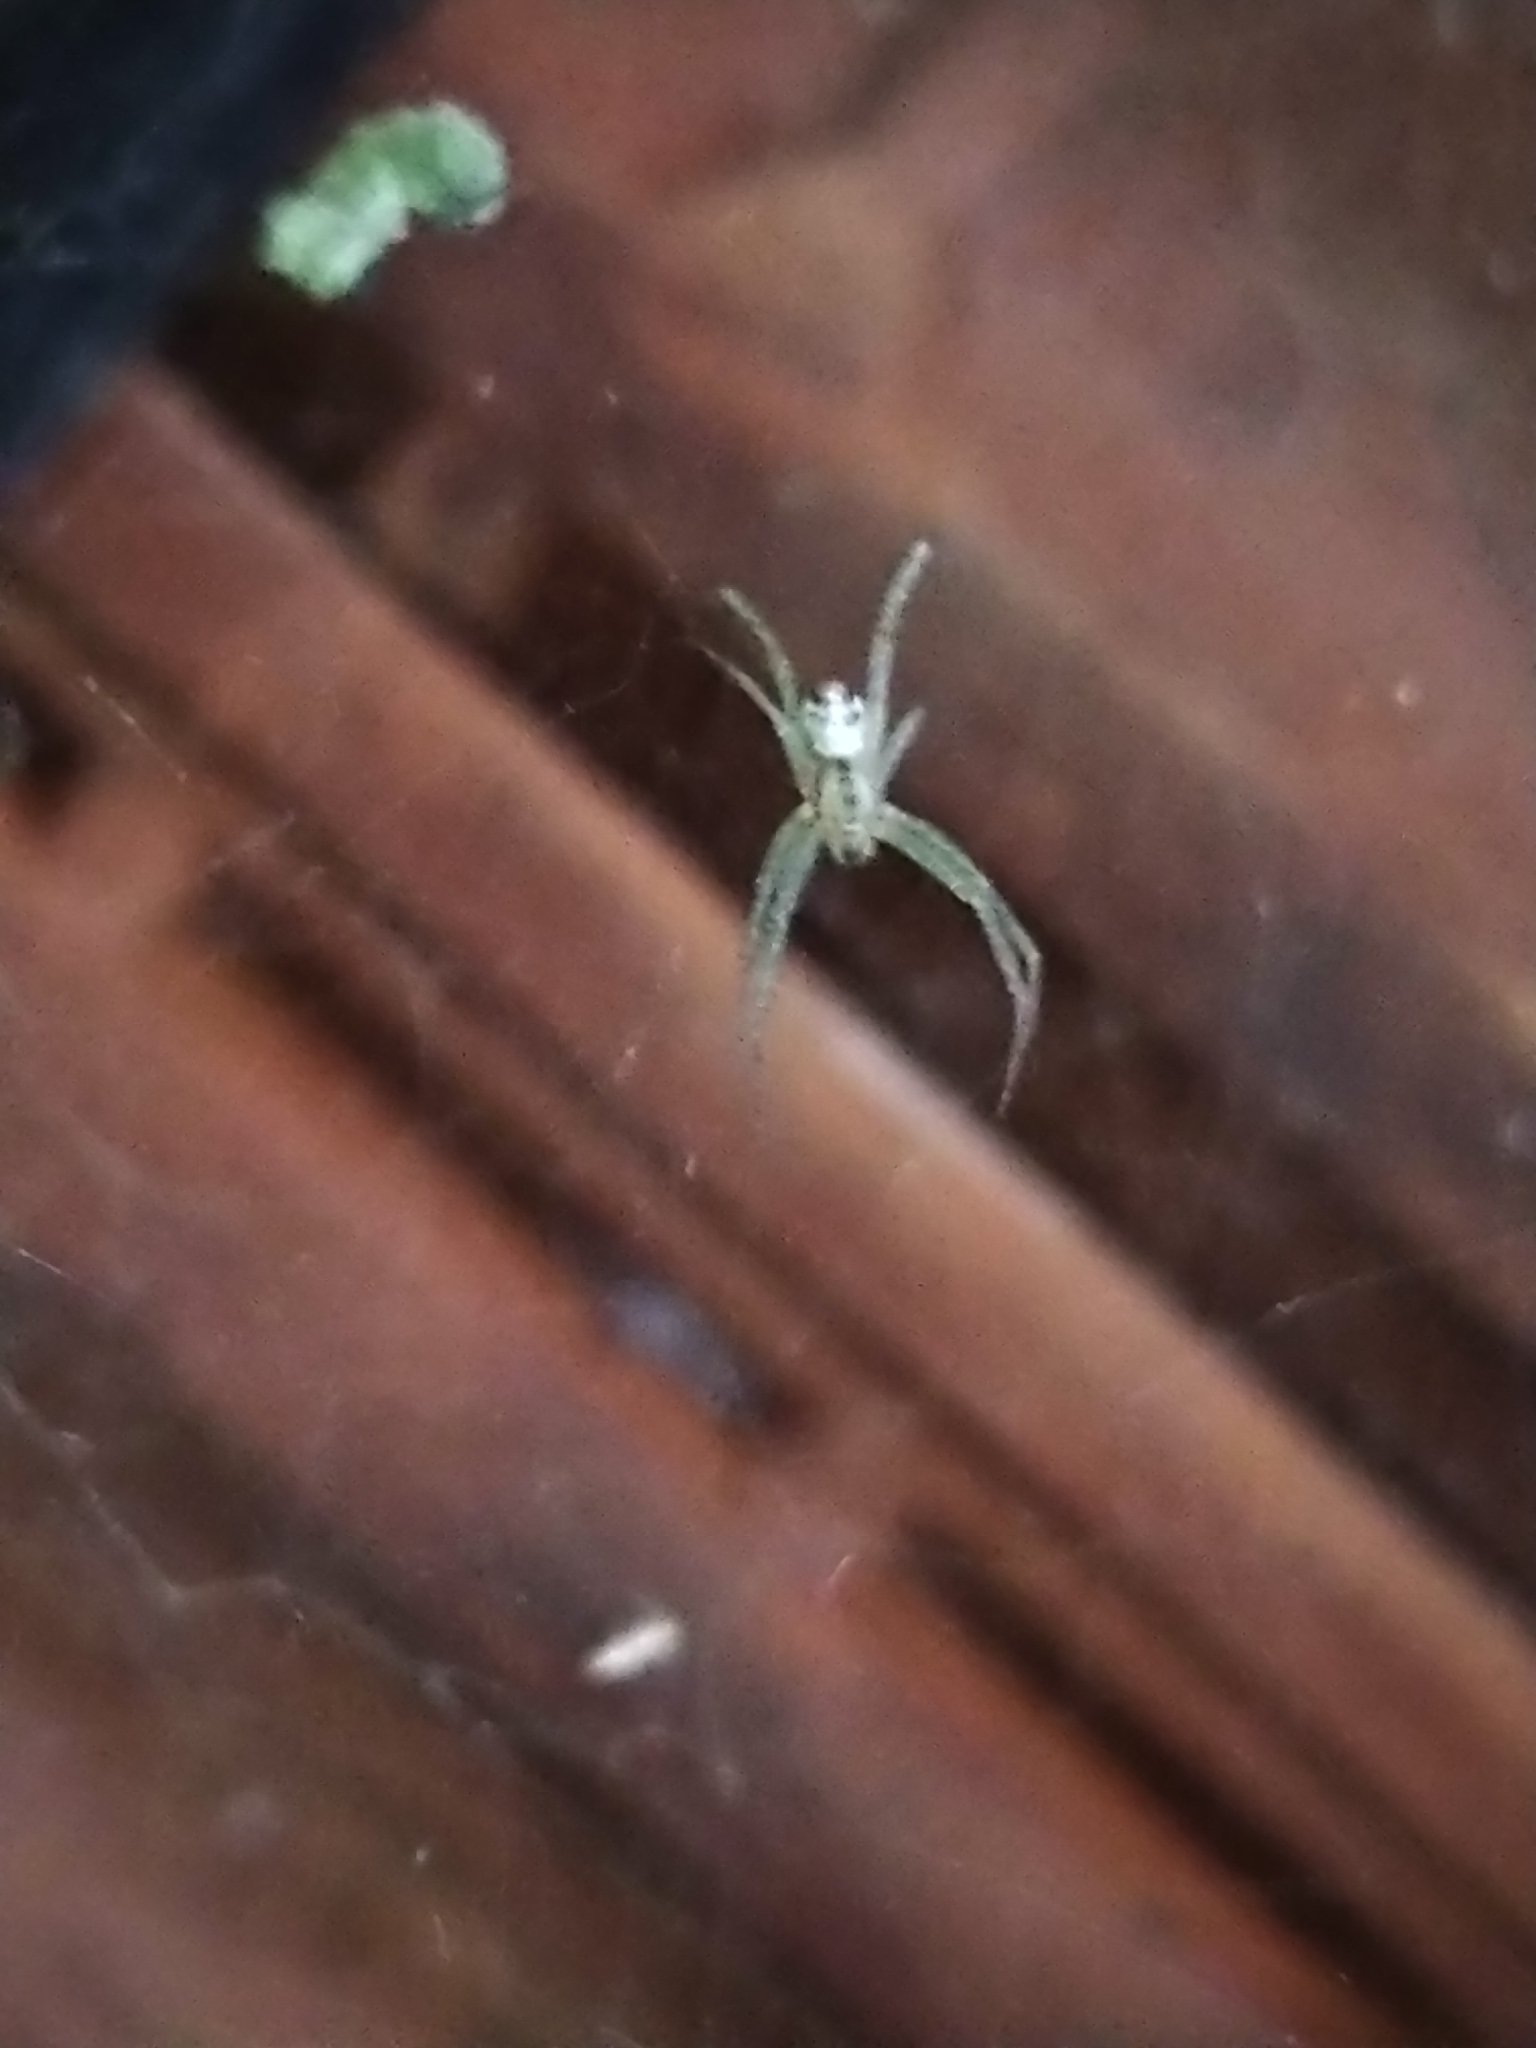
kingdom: Animalia
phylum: Arthropoda
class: Arachnida
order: Araneae
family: Araneidae
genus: Cyrtophora
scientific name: Cyrtophora cicatrosa
